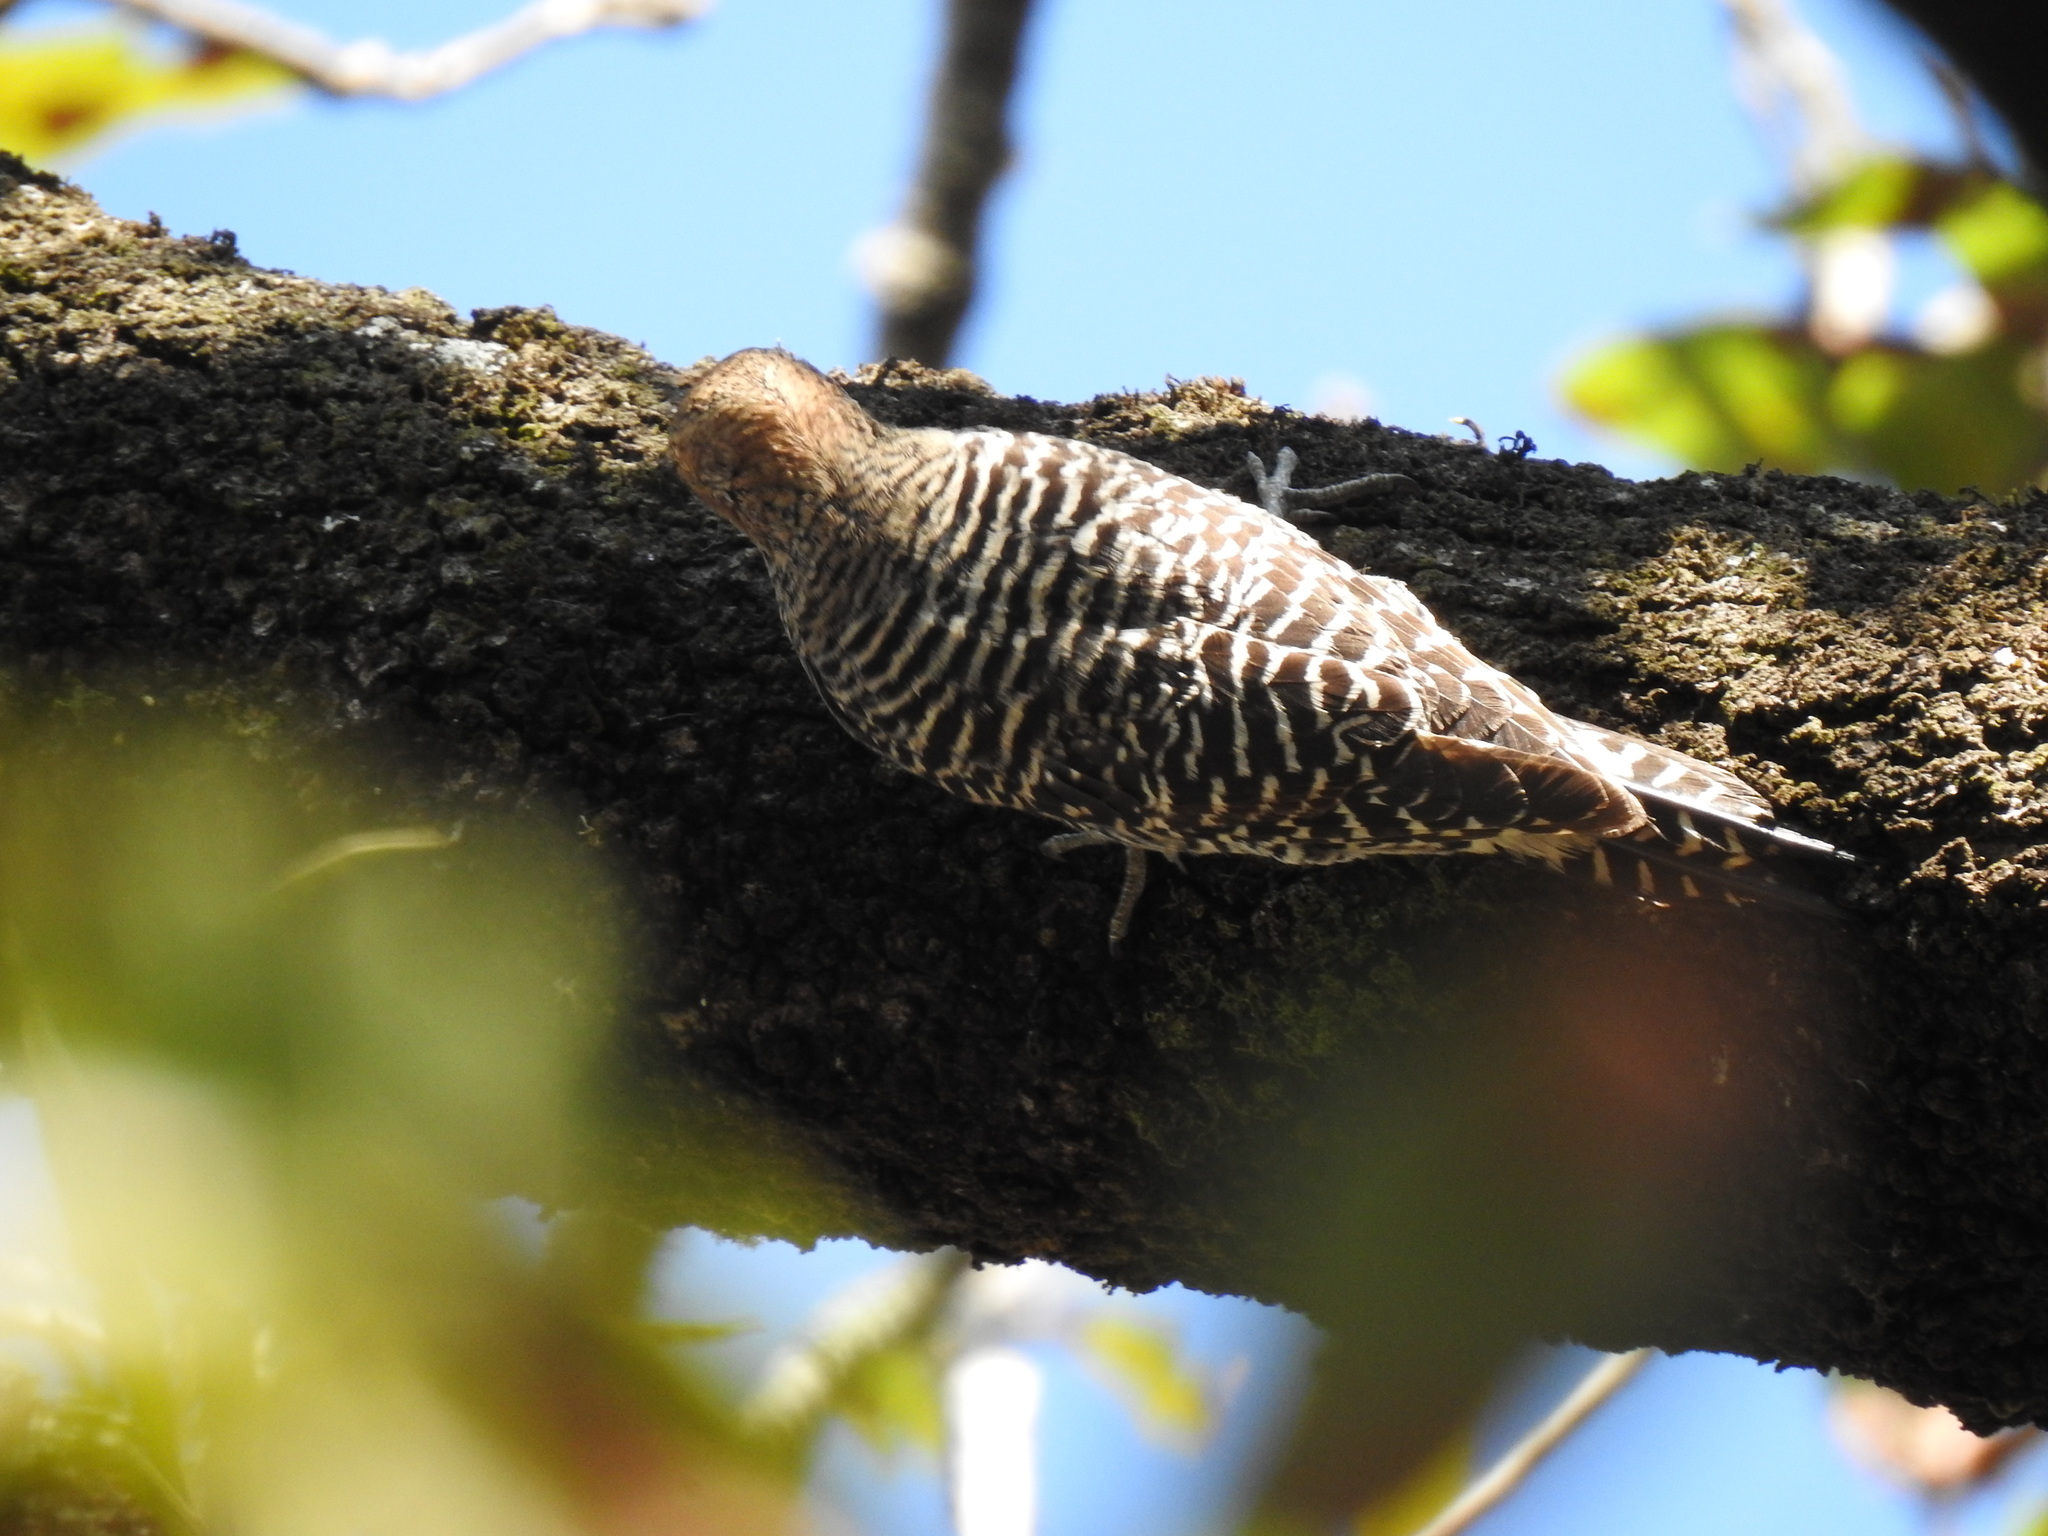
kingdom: Animalia
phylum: Chordata
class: Aves
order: Piciformes
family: Picidae
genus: Sphyrapicus
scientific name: Sphyrapicus thyroideus
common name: Williamson's sapsucker
